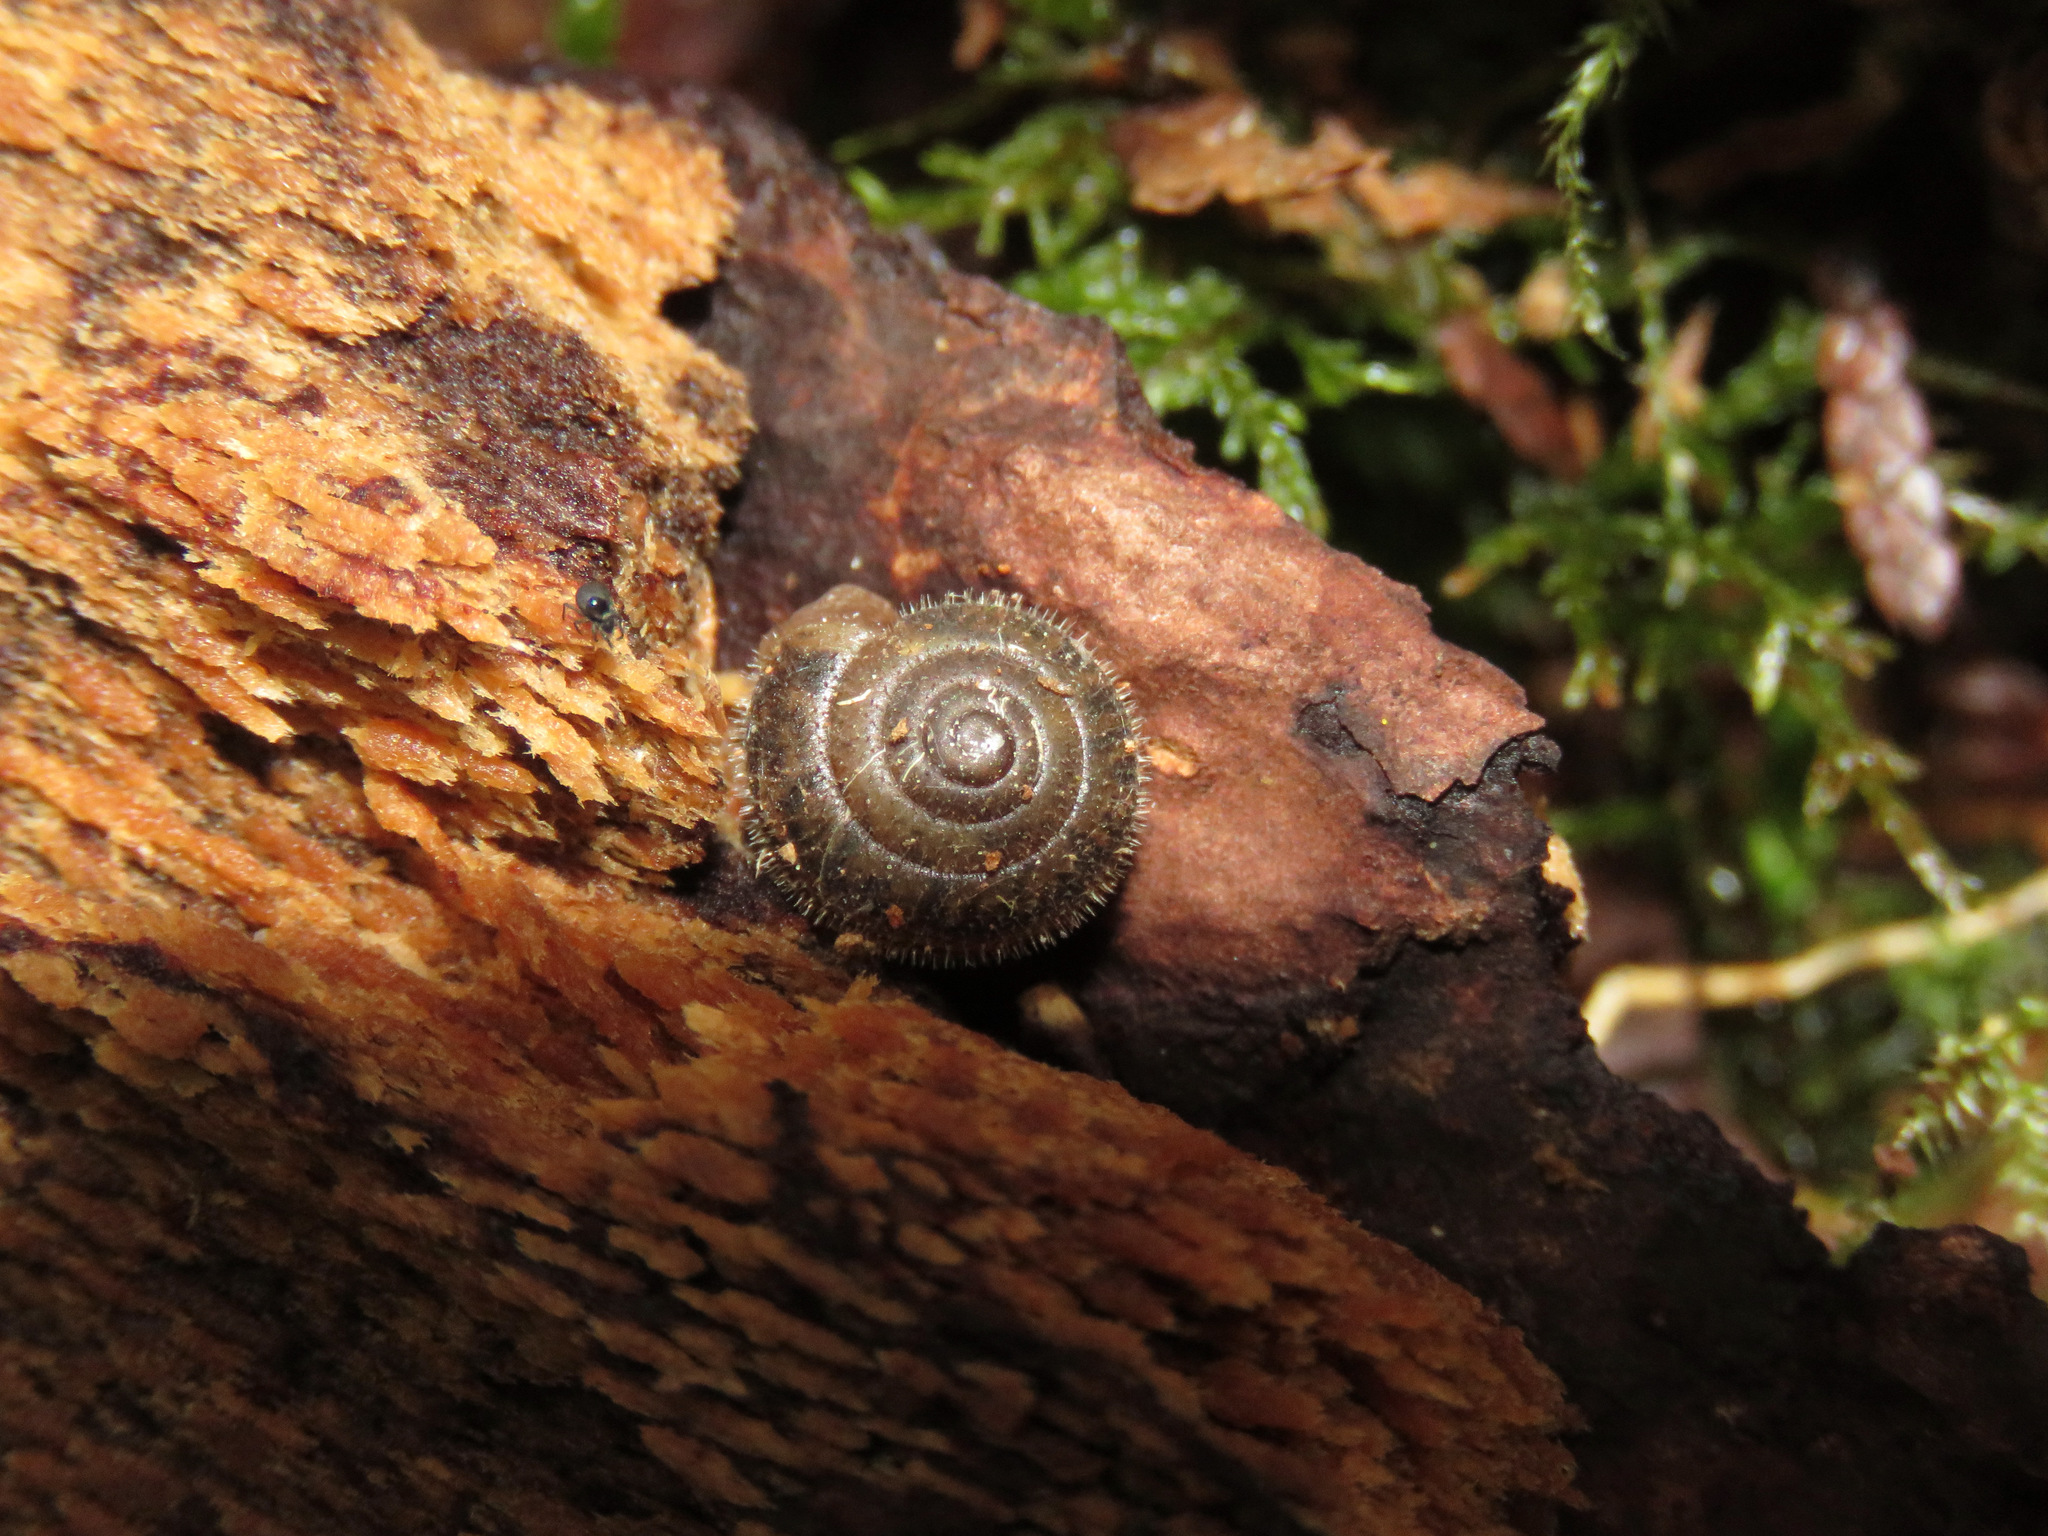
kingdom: Animalia
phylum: Mollusca
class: Gastropoda
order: Stylommatophora
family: Polygyridae
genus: Vespericola
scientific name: Vespericola columbianus
